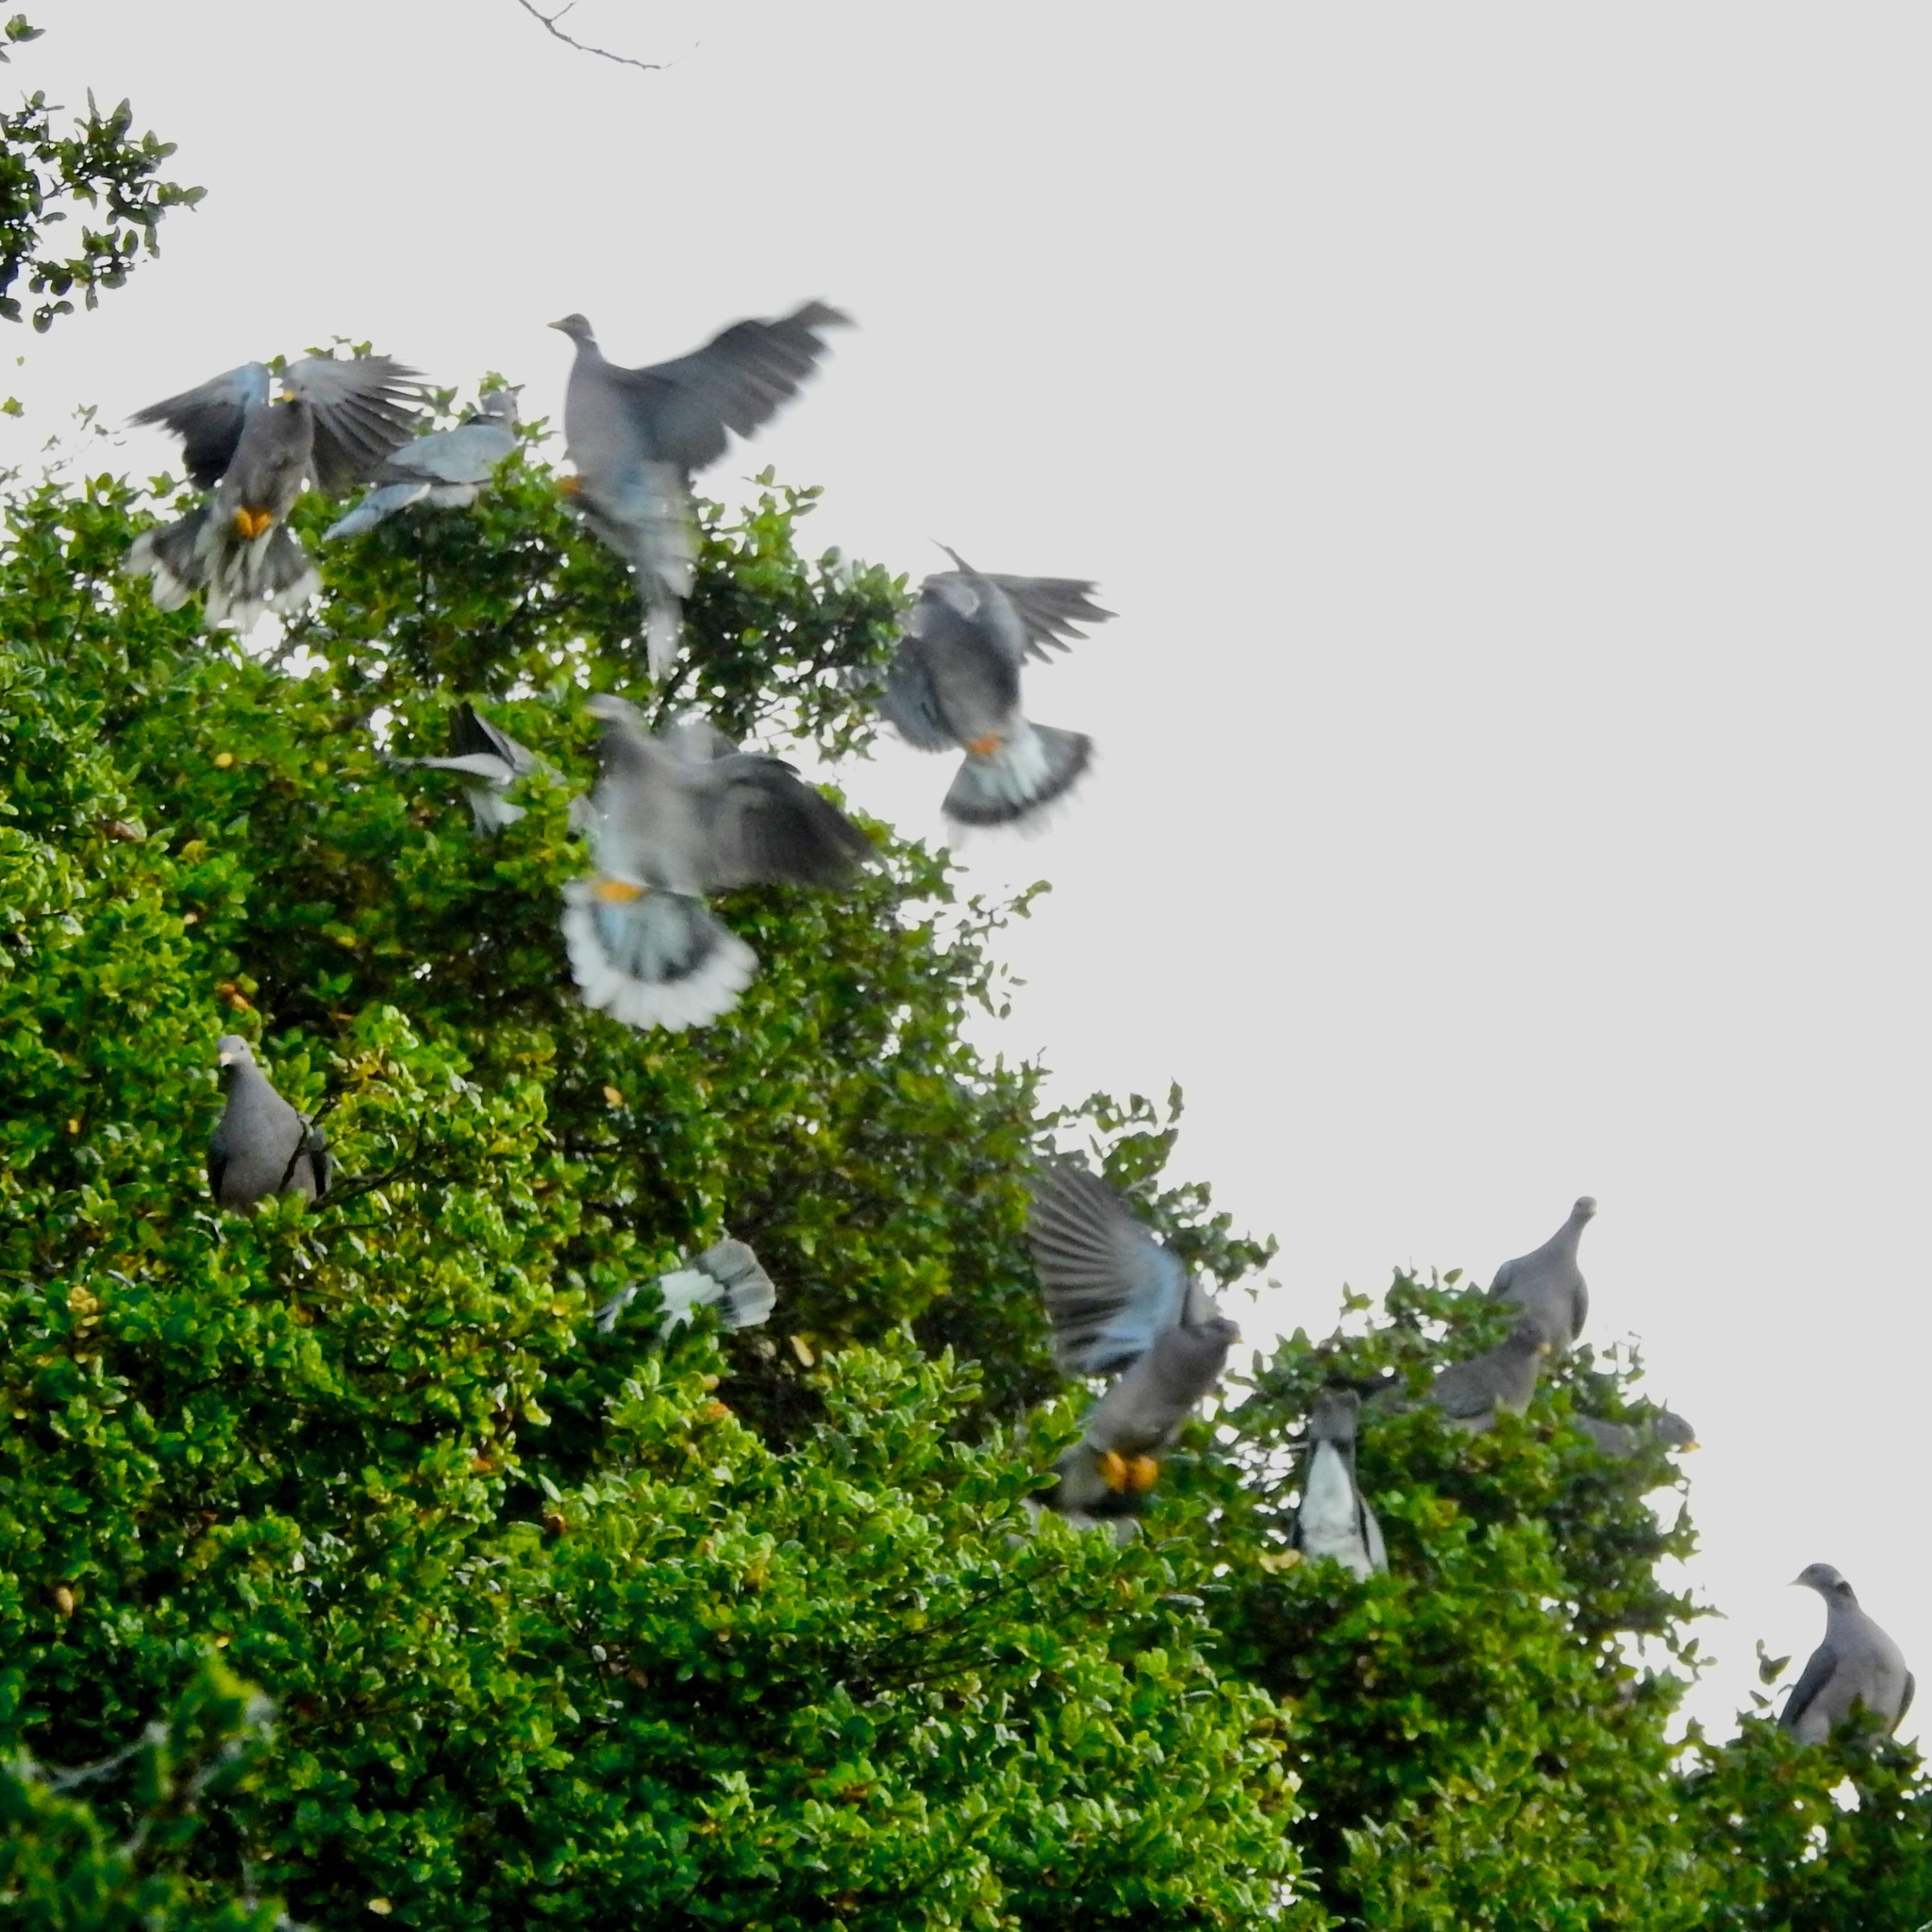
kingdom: Animalia
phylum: Chordata
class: Aves
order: Columbiformes
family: Columbidae
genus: Patagioenas
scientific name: Patagioenas fasciata
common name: Band-tailed pigeon
